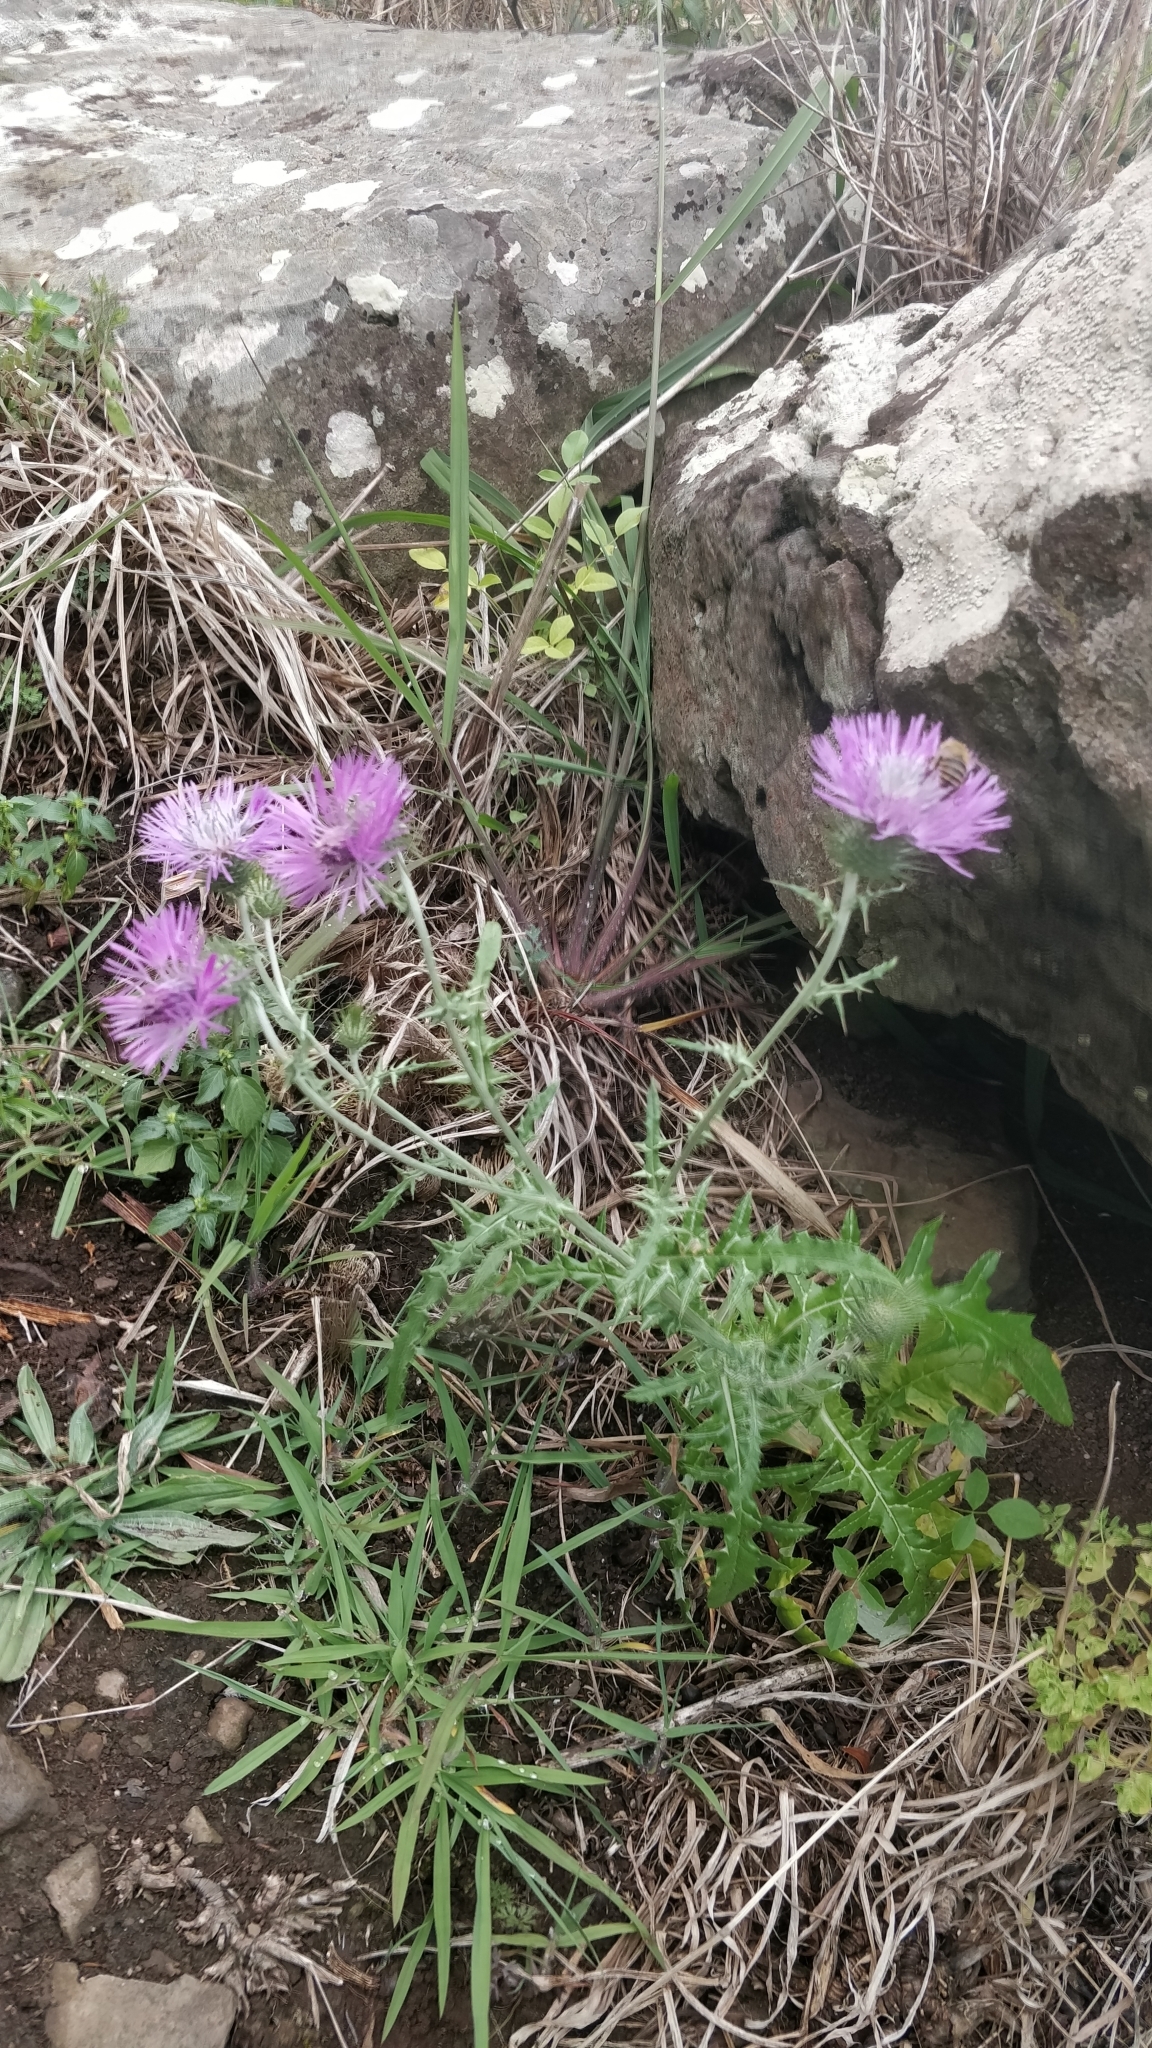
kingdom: Plantae
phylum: Tracheophyta
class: Magnoliopsida
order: Asterales
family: Asteraceae
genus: Galactites
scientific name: Galactites tomentosa
